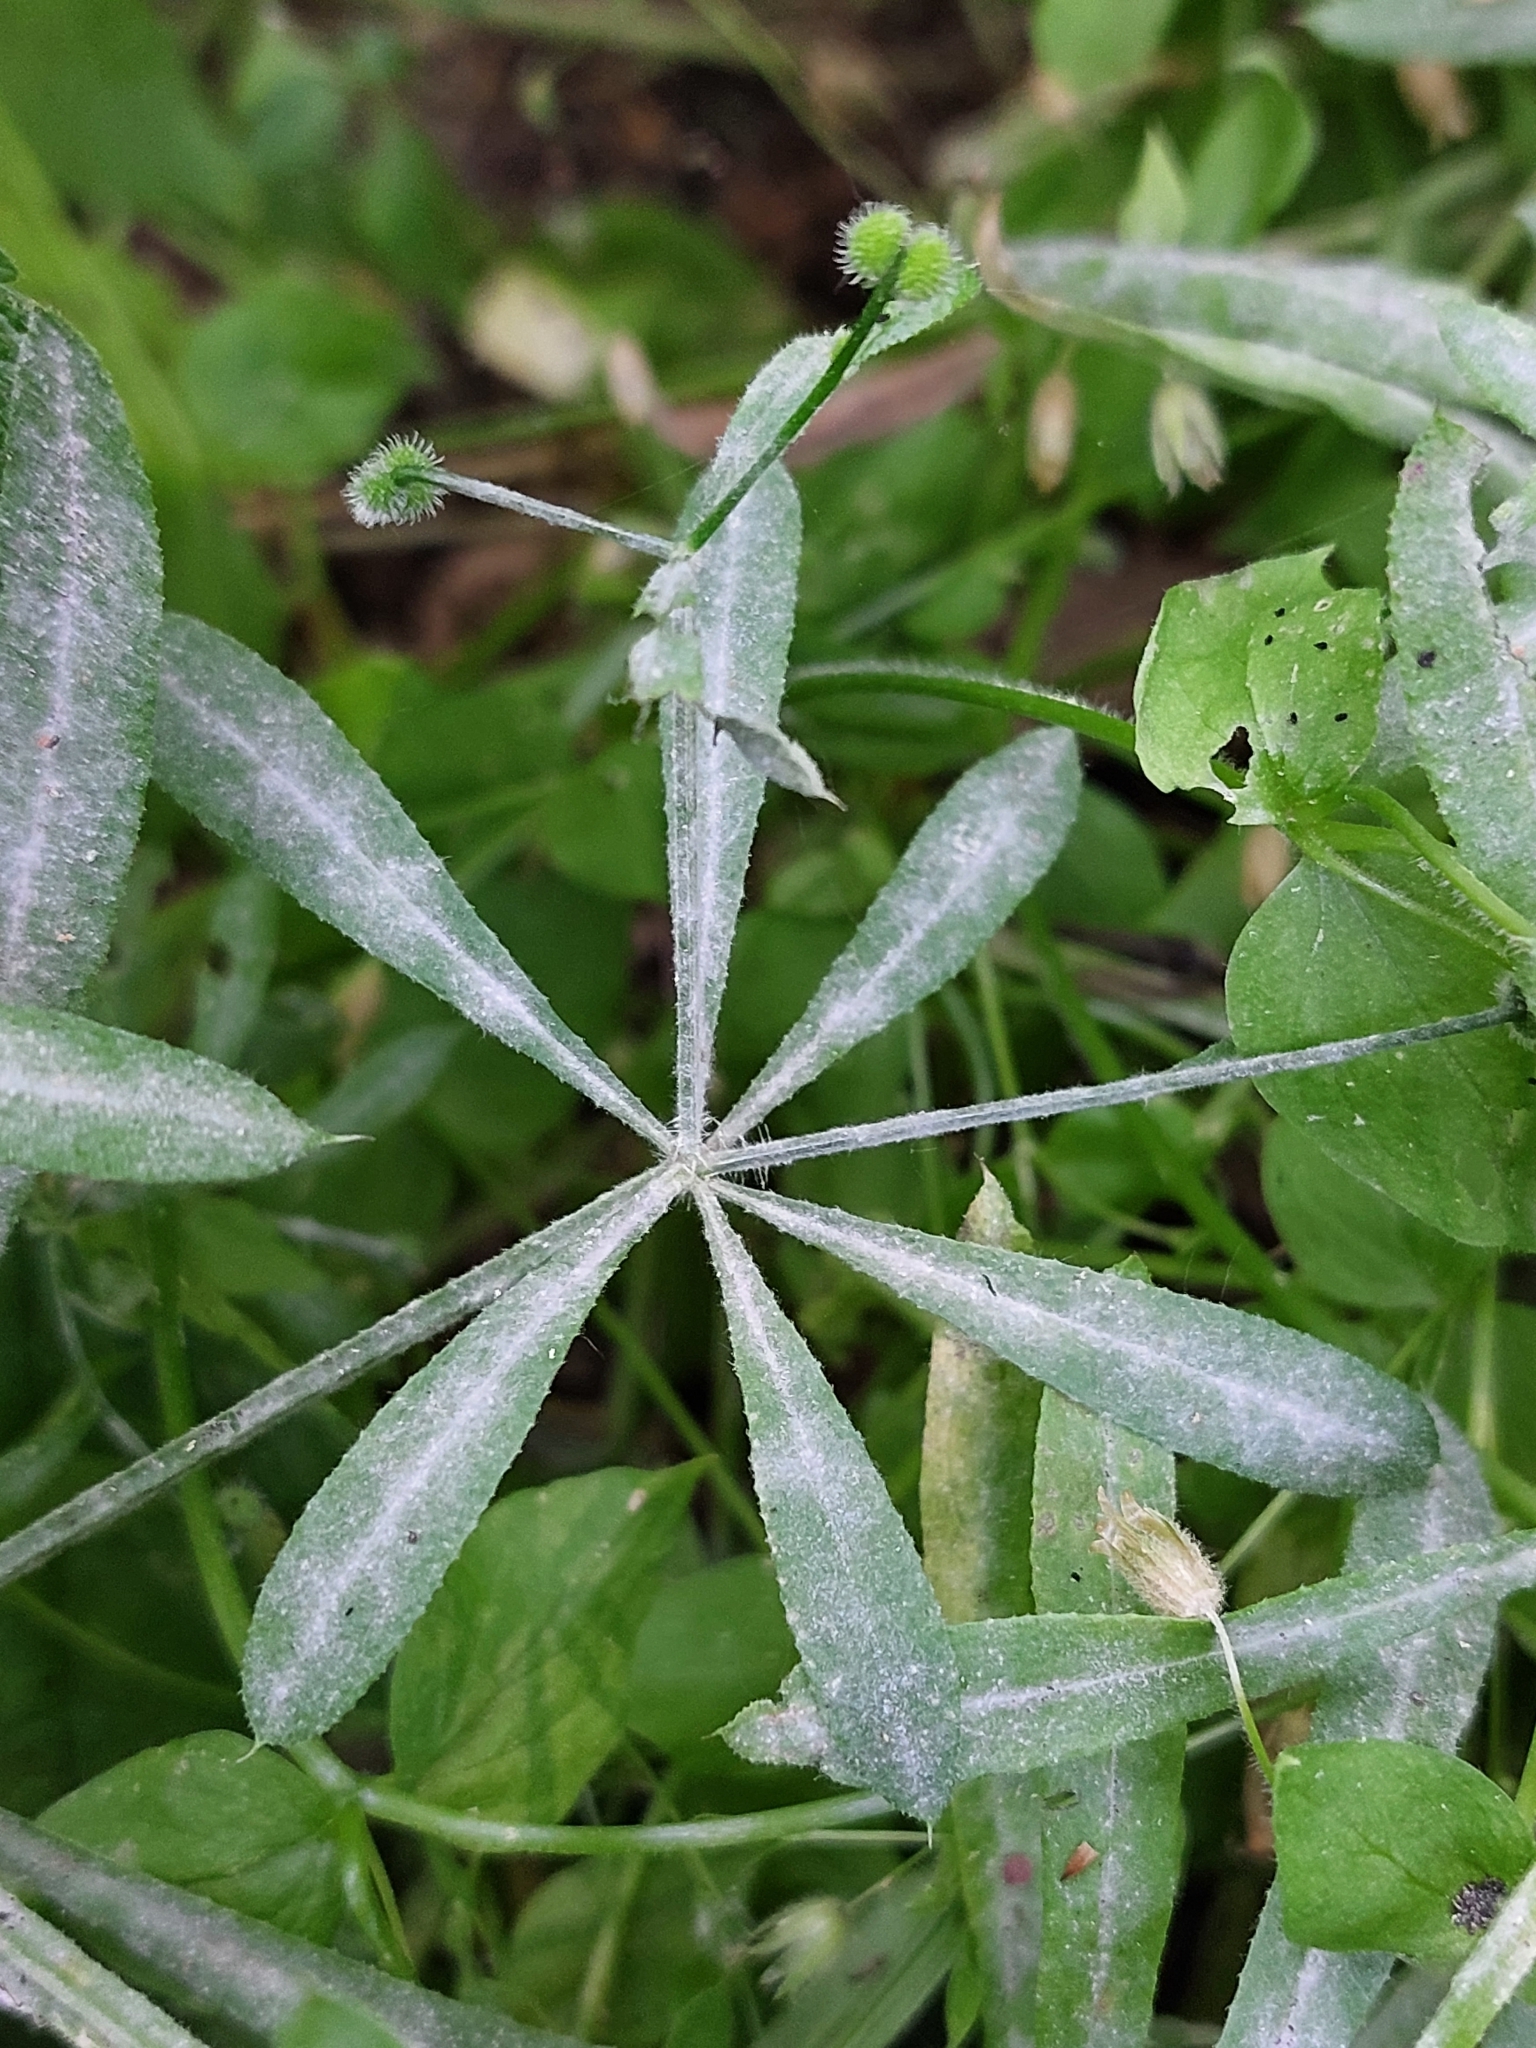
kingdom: Fungi
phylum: Ascomycota
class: Leotiomycetes
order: Helotiales
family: Erysiphaceae
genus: Neoerysiphe
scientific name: Neoerysiphe galii
